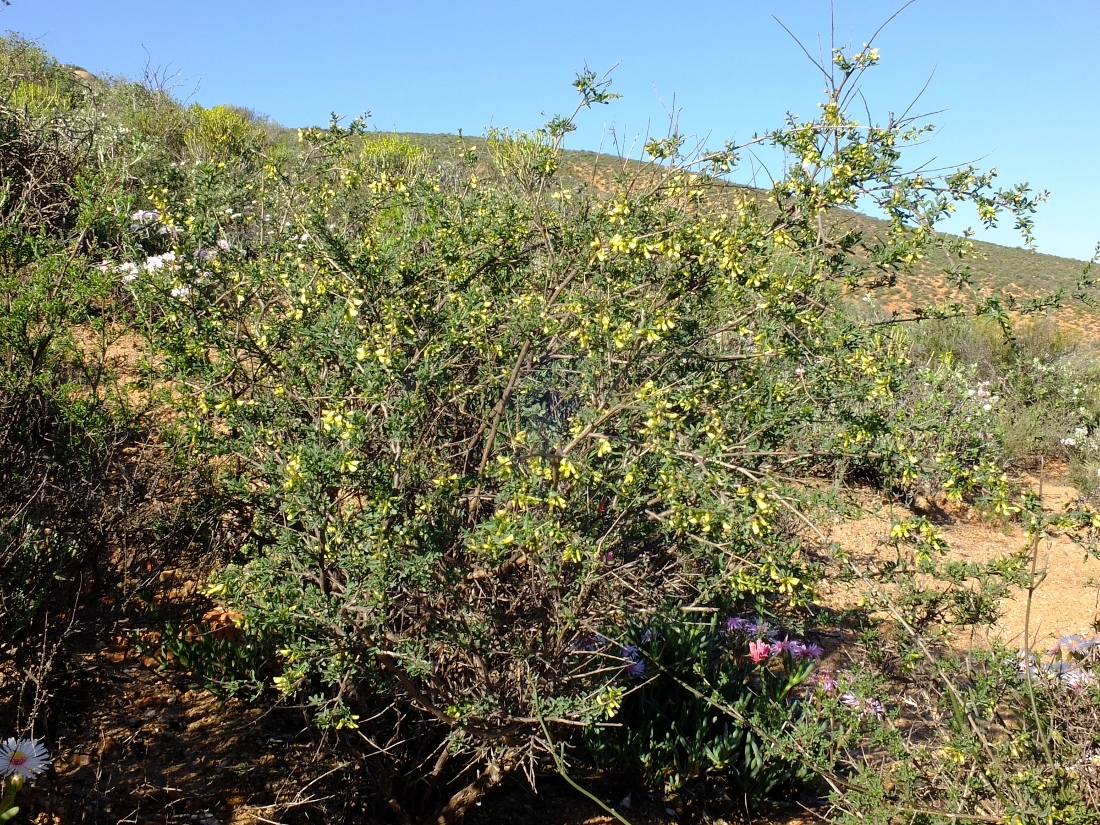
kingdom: Plantae
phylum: Tracheophyta
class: Magnoliopsida
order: Fabales
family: Fabaceae
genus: Wiborgia
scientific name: Wiborgia monoptera
